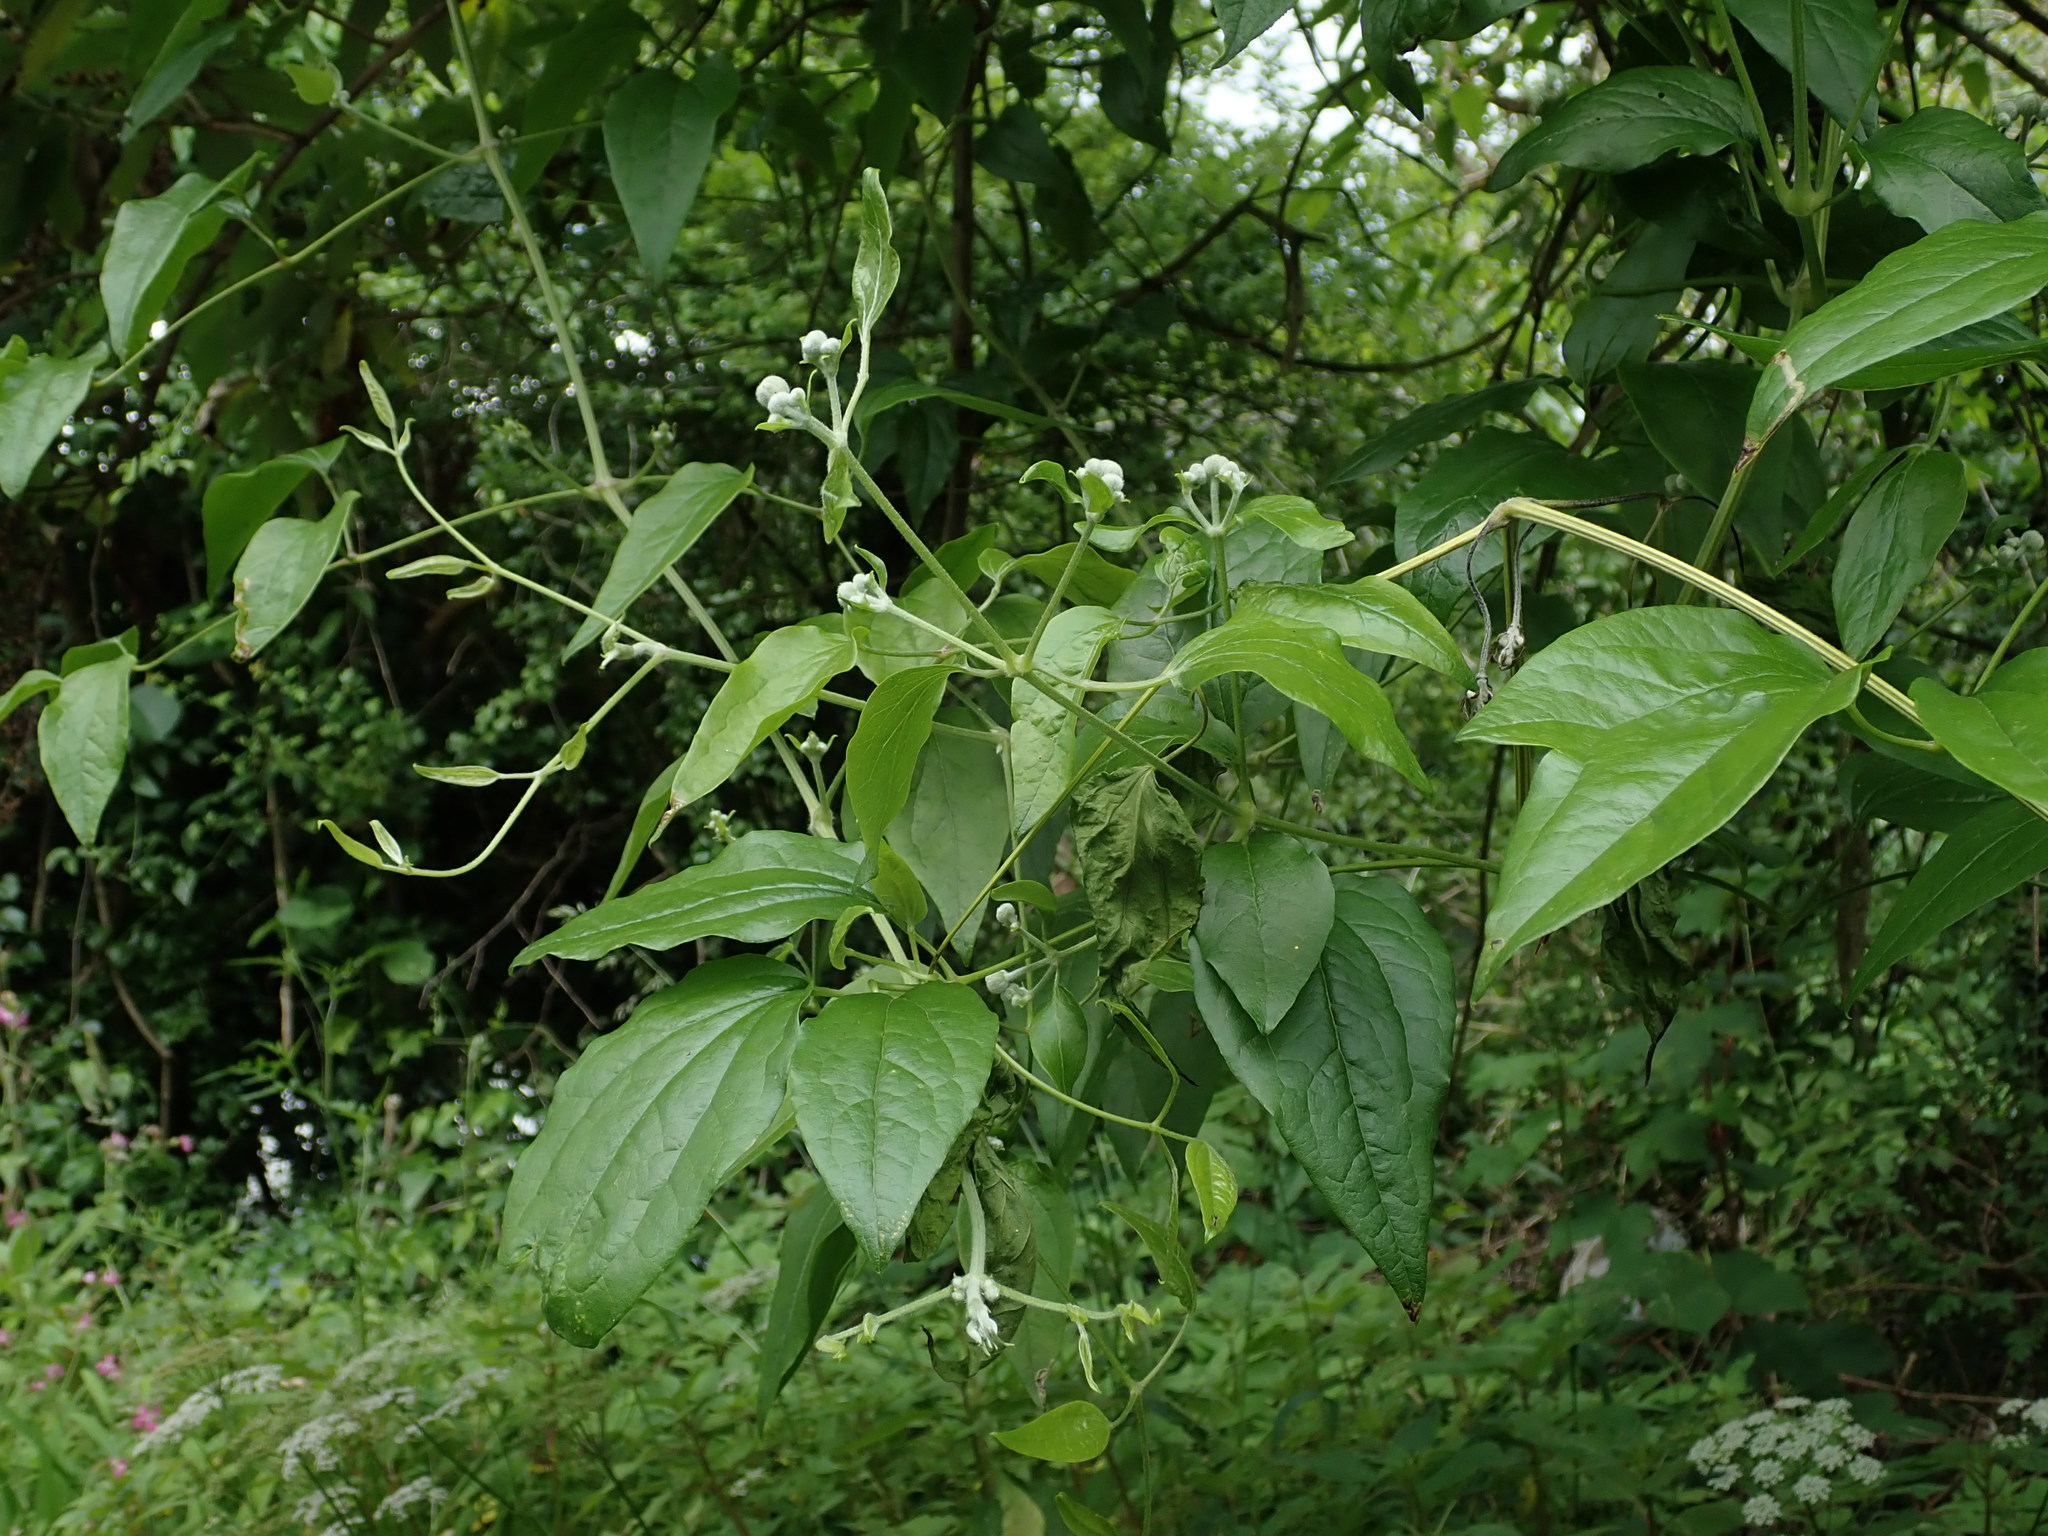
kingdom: Plantae
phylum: Tracheophyta
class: Magnoliopsida
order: Ranunculales
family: Ranunculaceae
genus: Clematis
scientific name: Clematis vitalba
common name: Evergreen clematis
